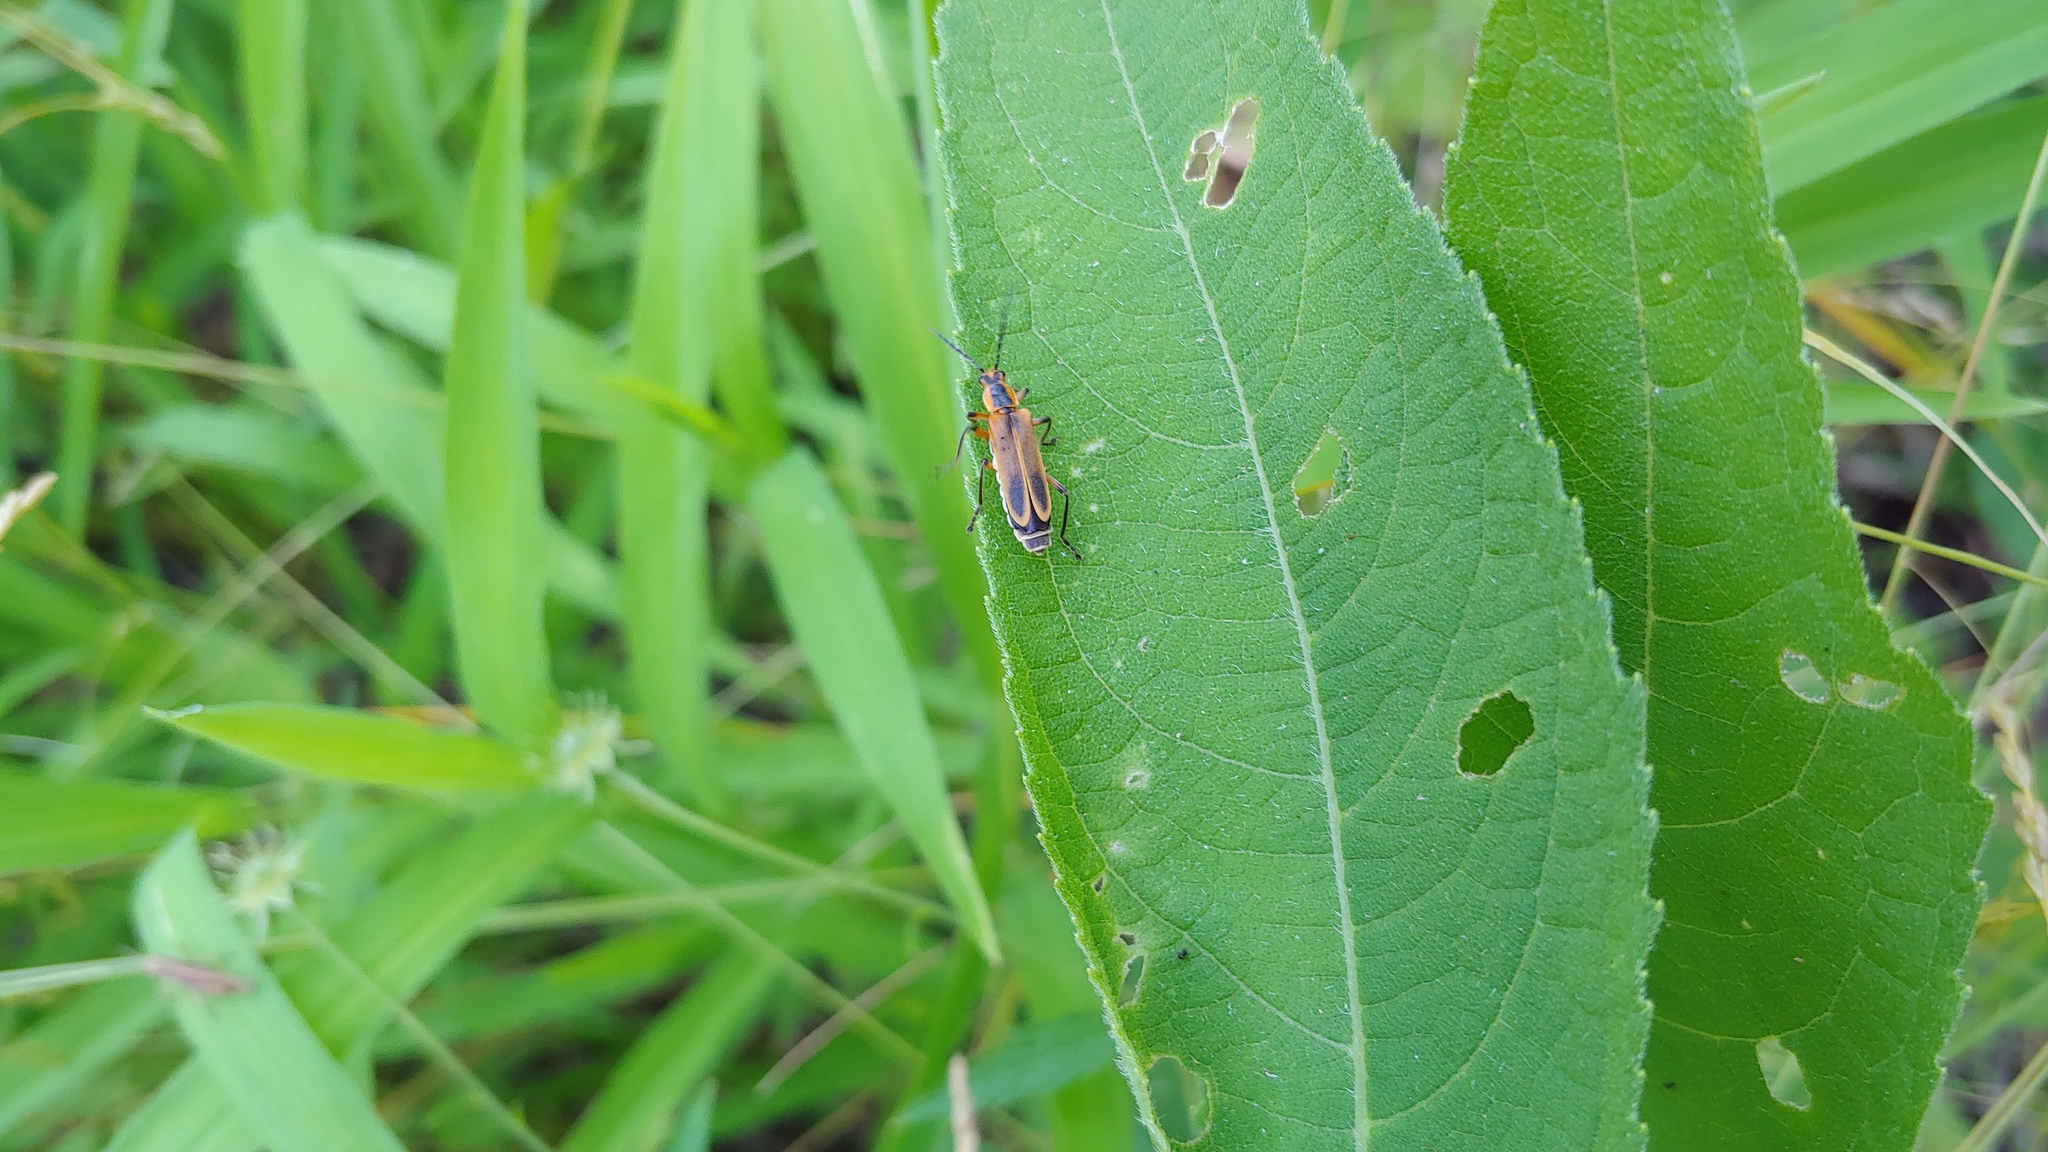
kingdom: Animalia
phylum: Arthropoda
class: Insecta
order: Coleoptera
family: Cantharidae
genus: Chauliognathus
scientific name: Chauliognathus marginatus
